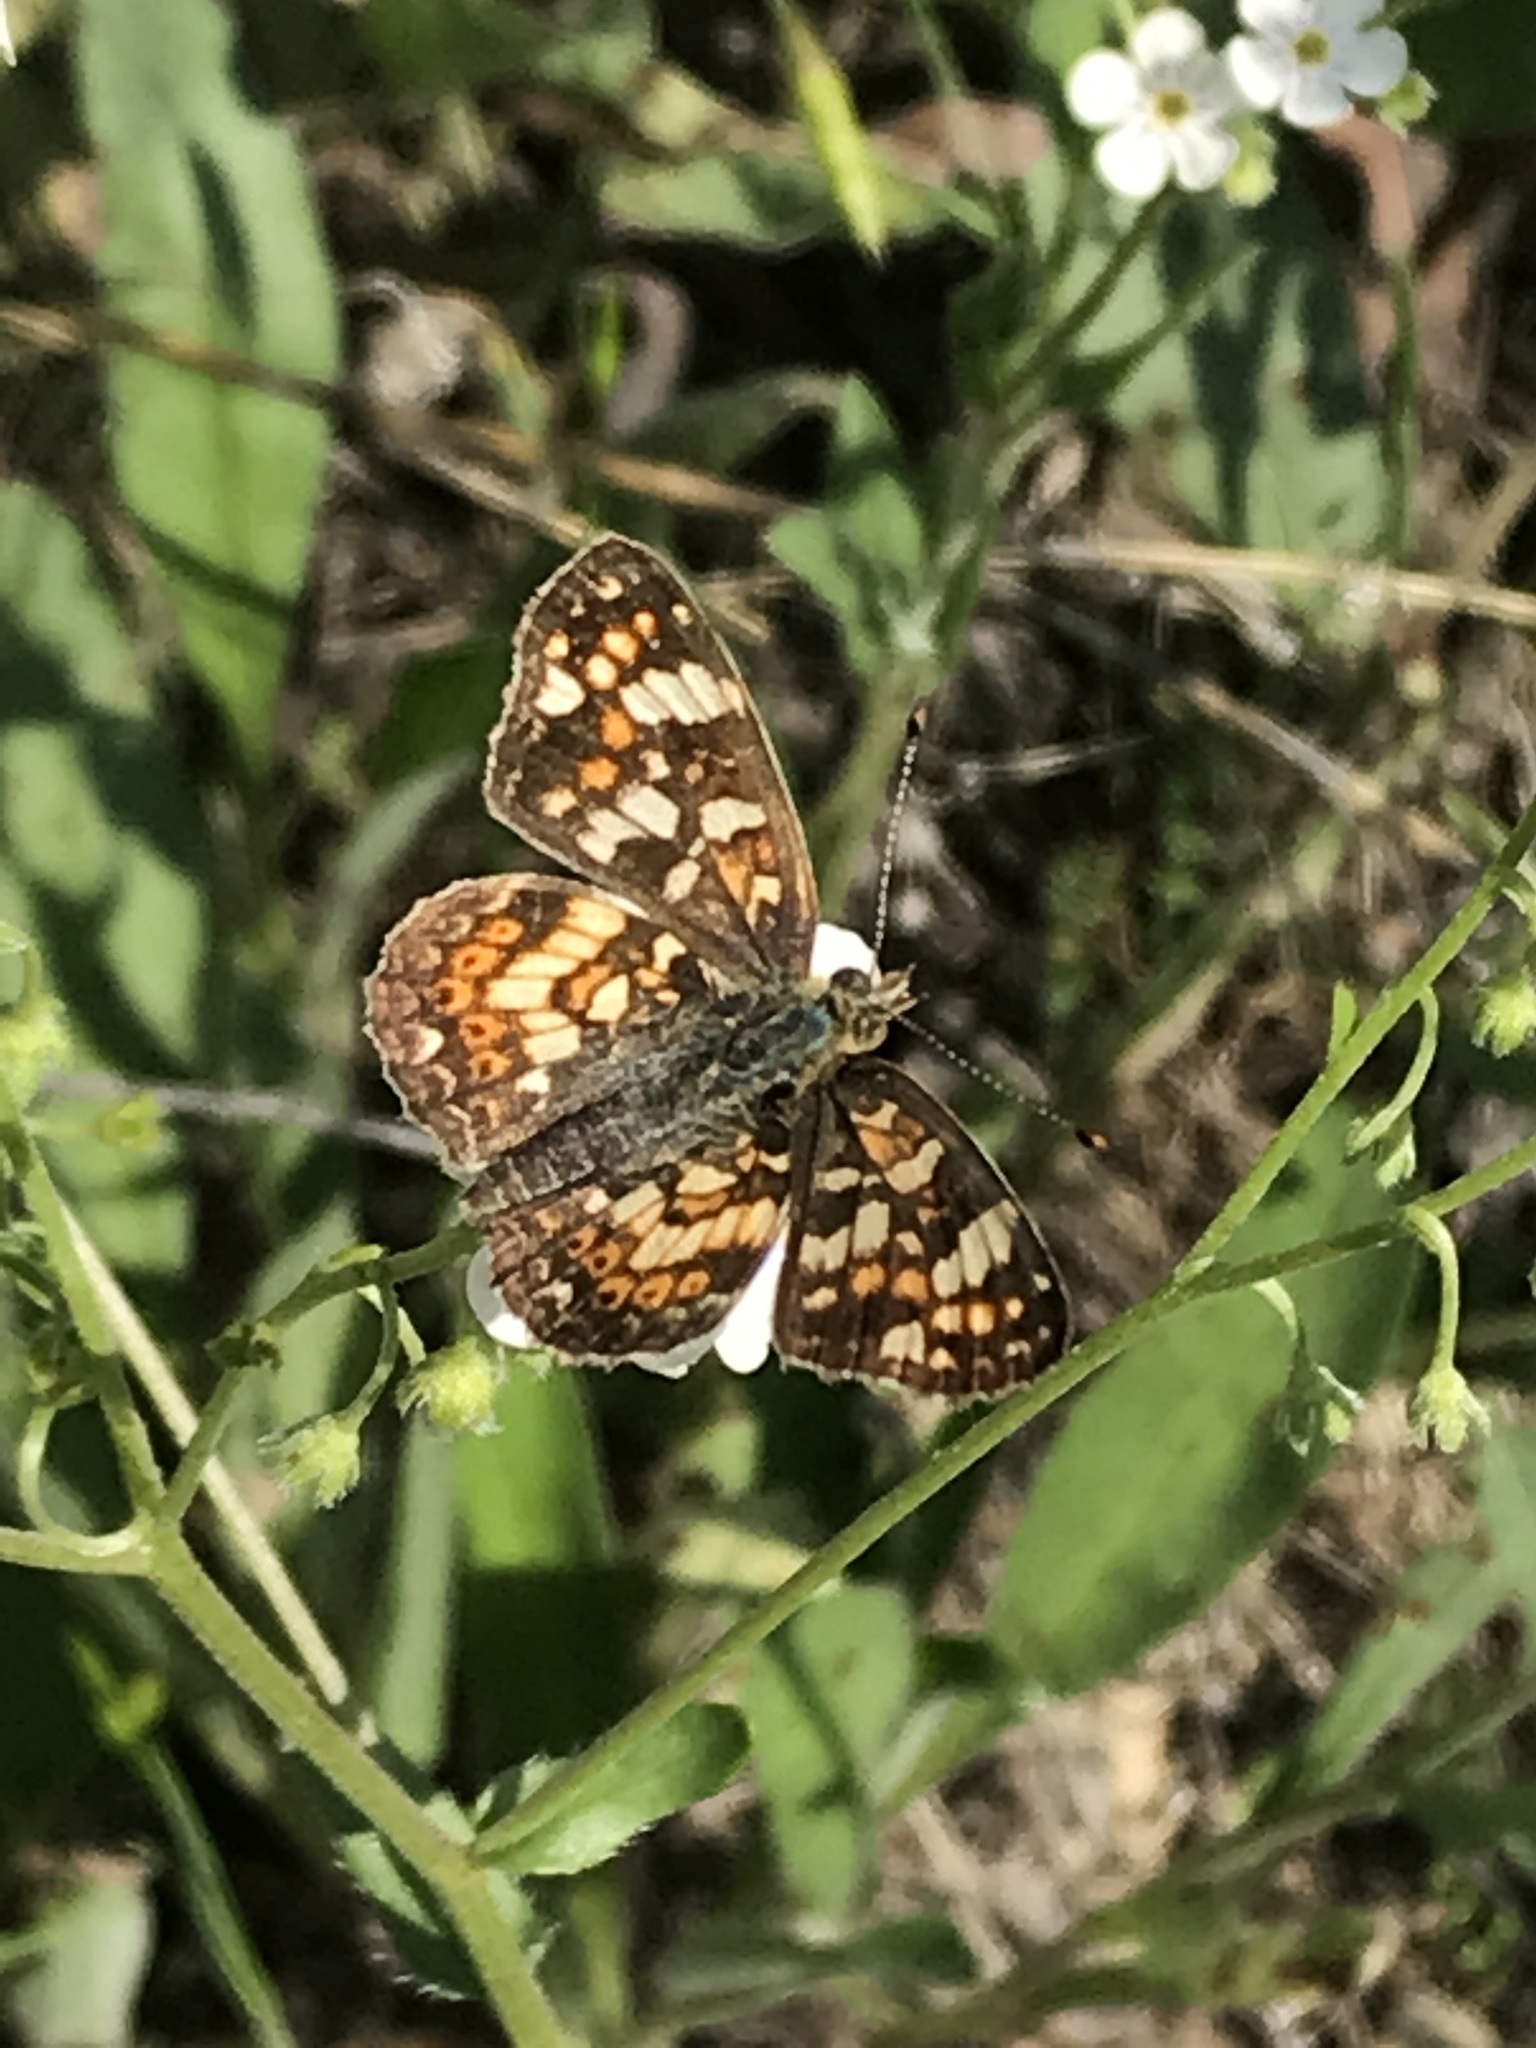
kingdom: Animalia
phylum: Arthropoda
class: Insecta
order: Lepidoptera
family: Nymphalidae
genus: Phyciodes
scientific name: Phyciodes tharos
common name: Pearl crescent
